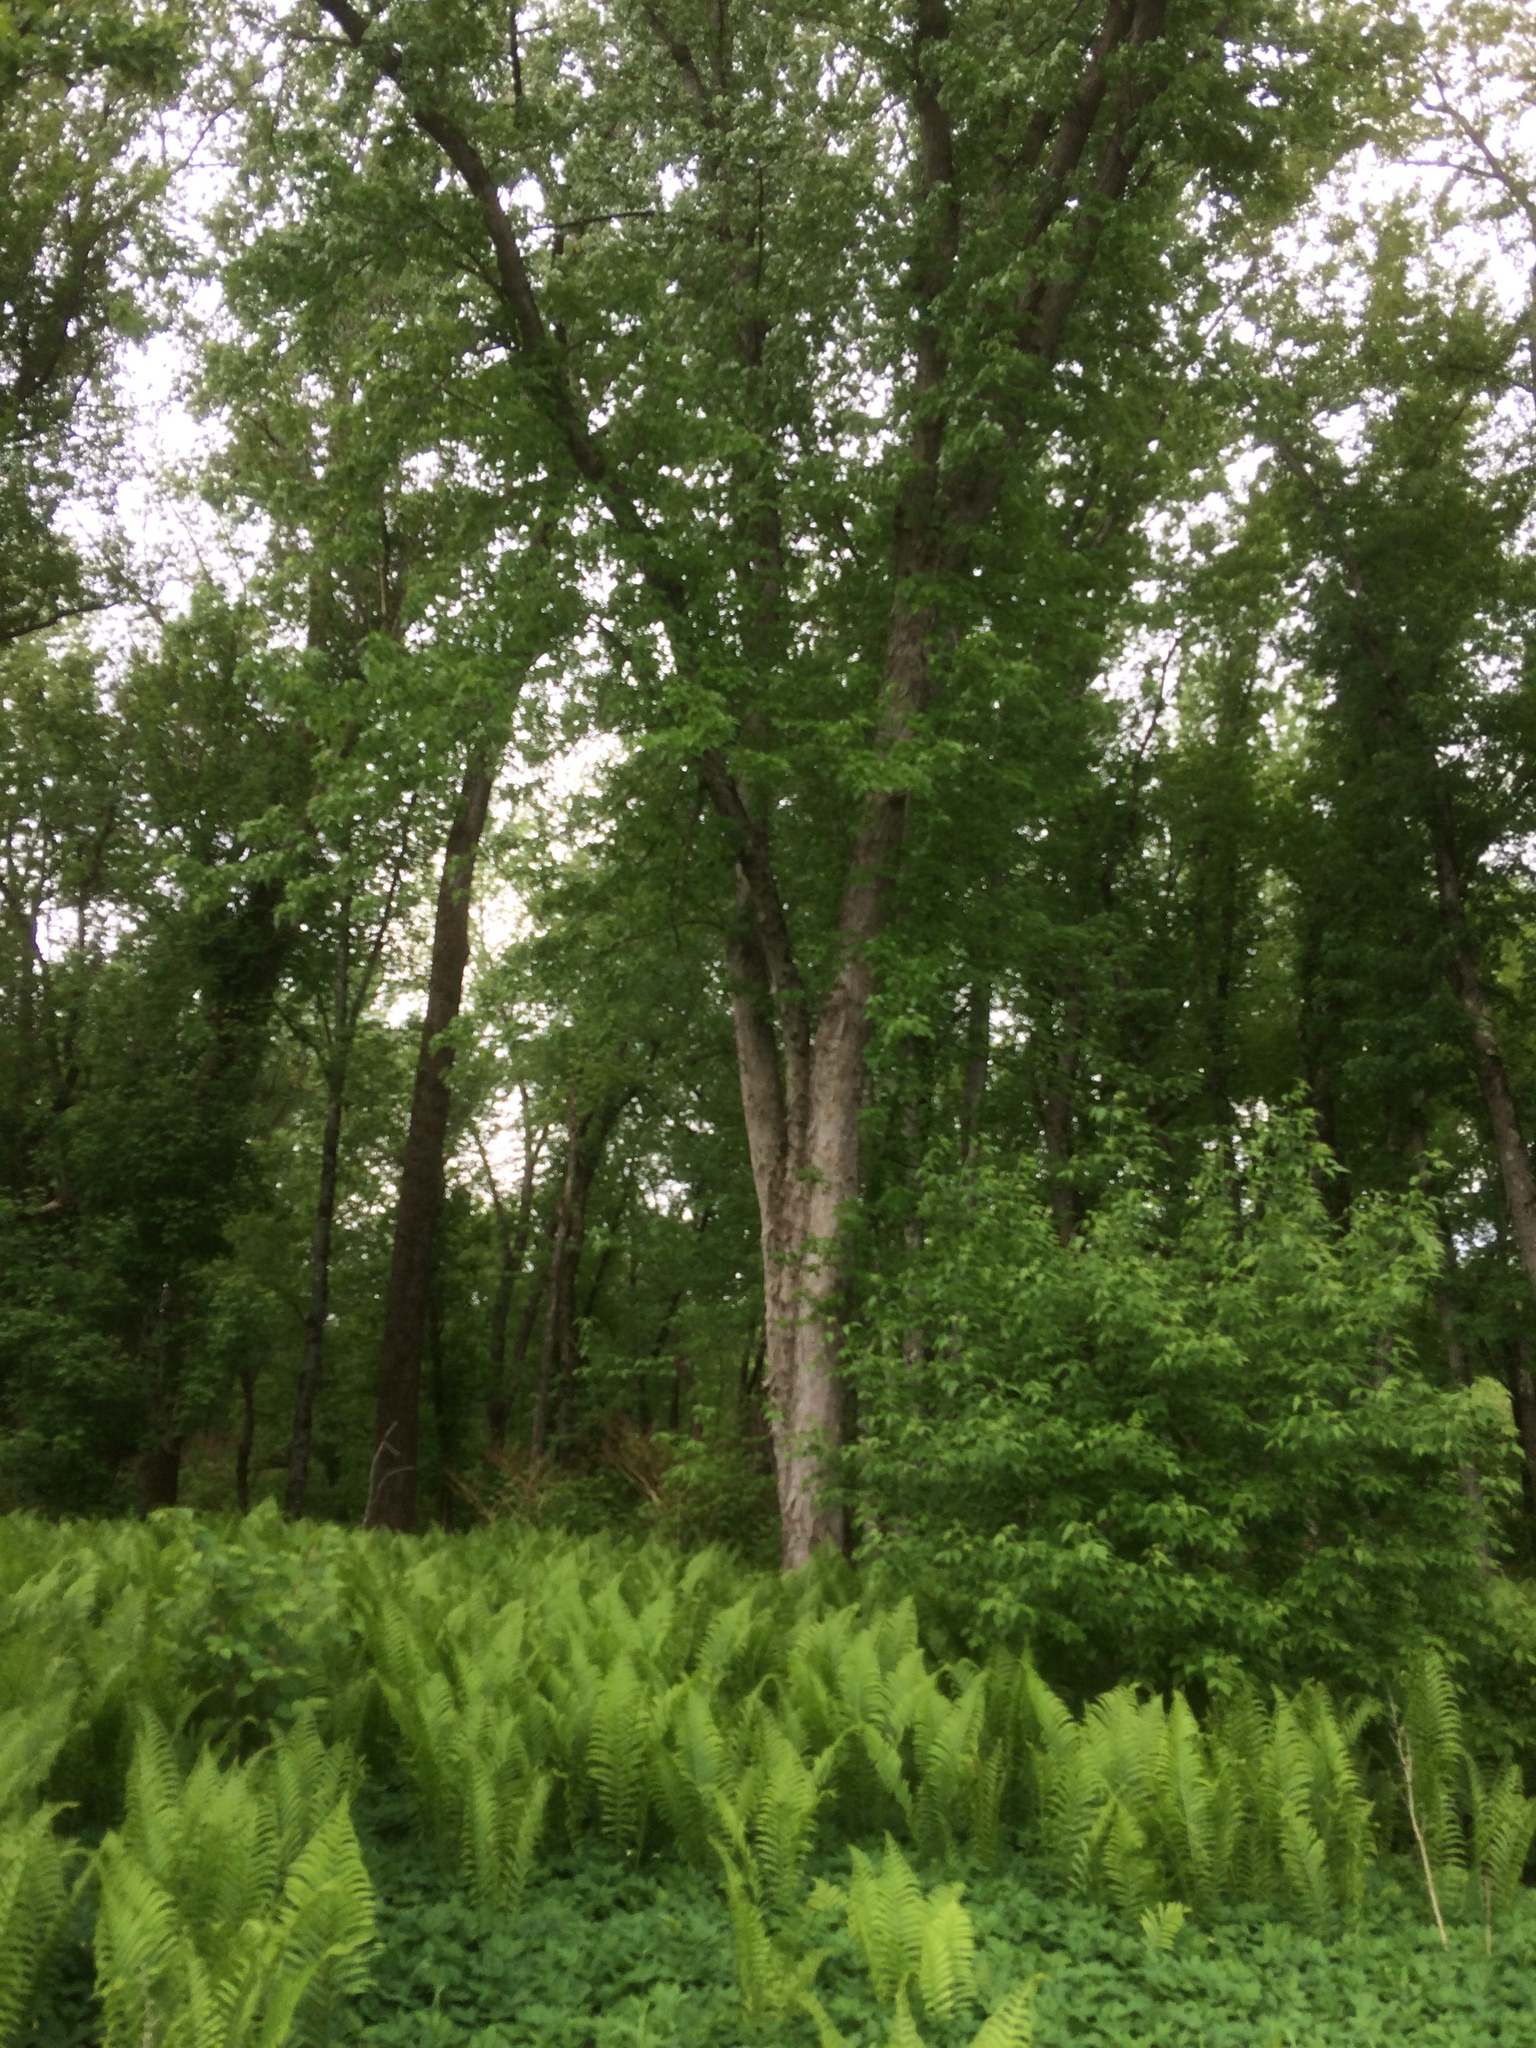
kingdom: Plantae
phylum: Tracheophyta
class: Magnoliopsida
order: Sapindales
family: Sapindaceae
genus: Acer
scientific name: Acer saccharinum
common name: Silver maple
